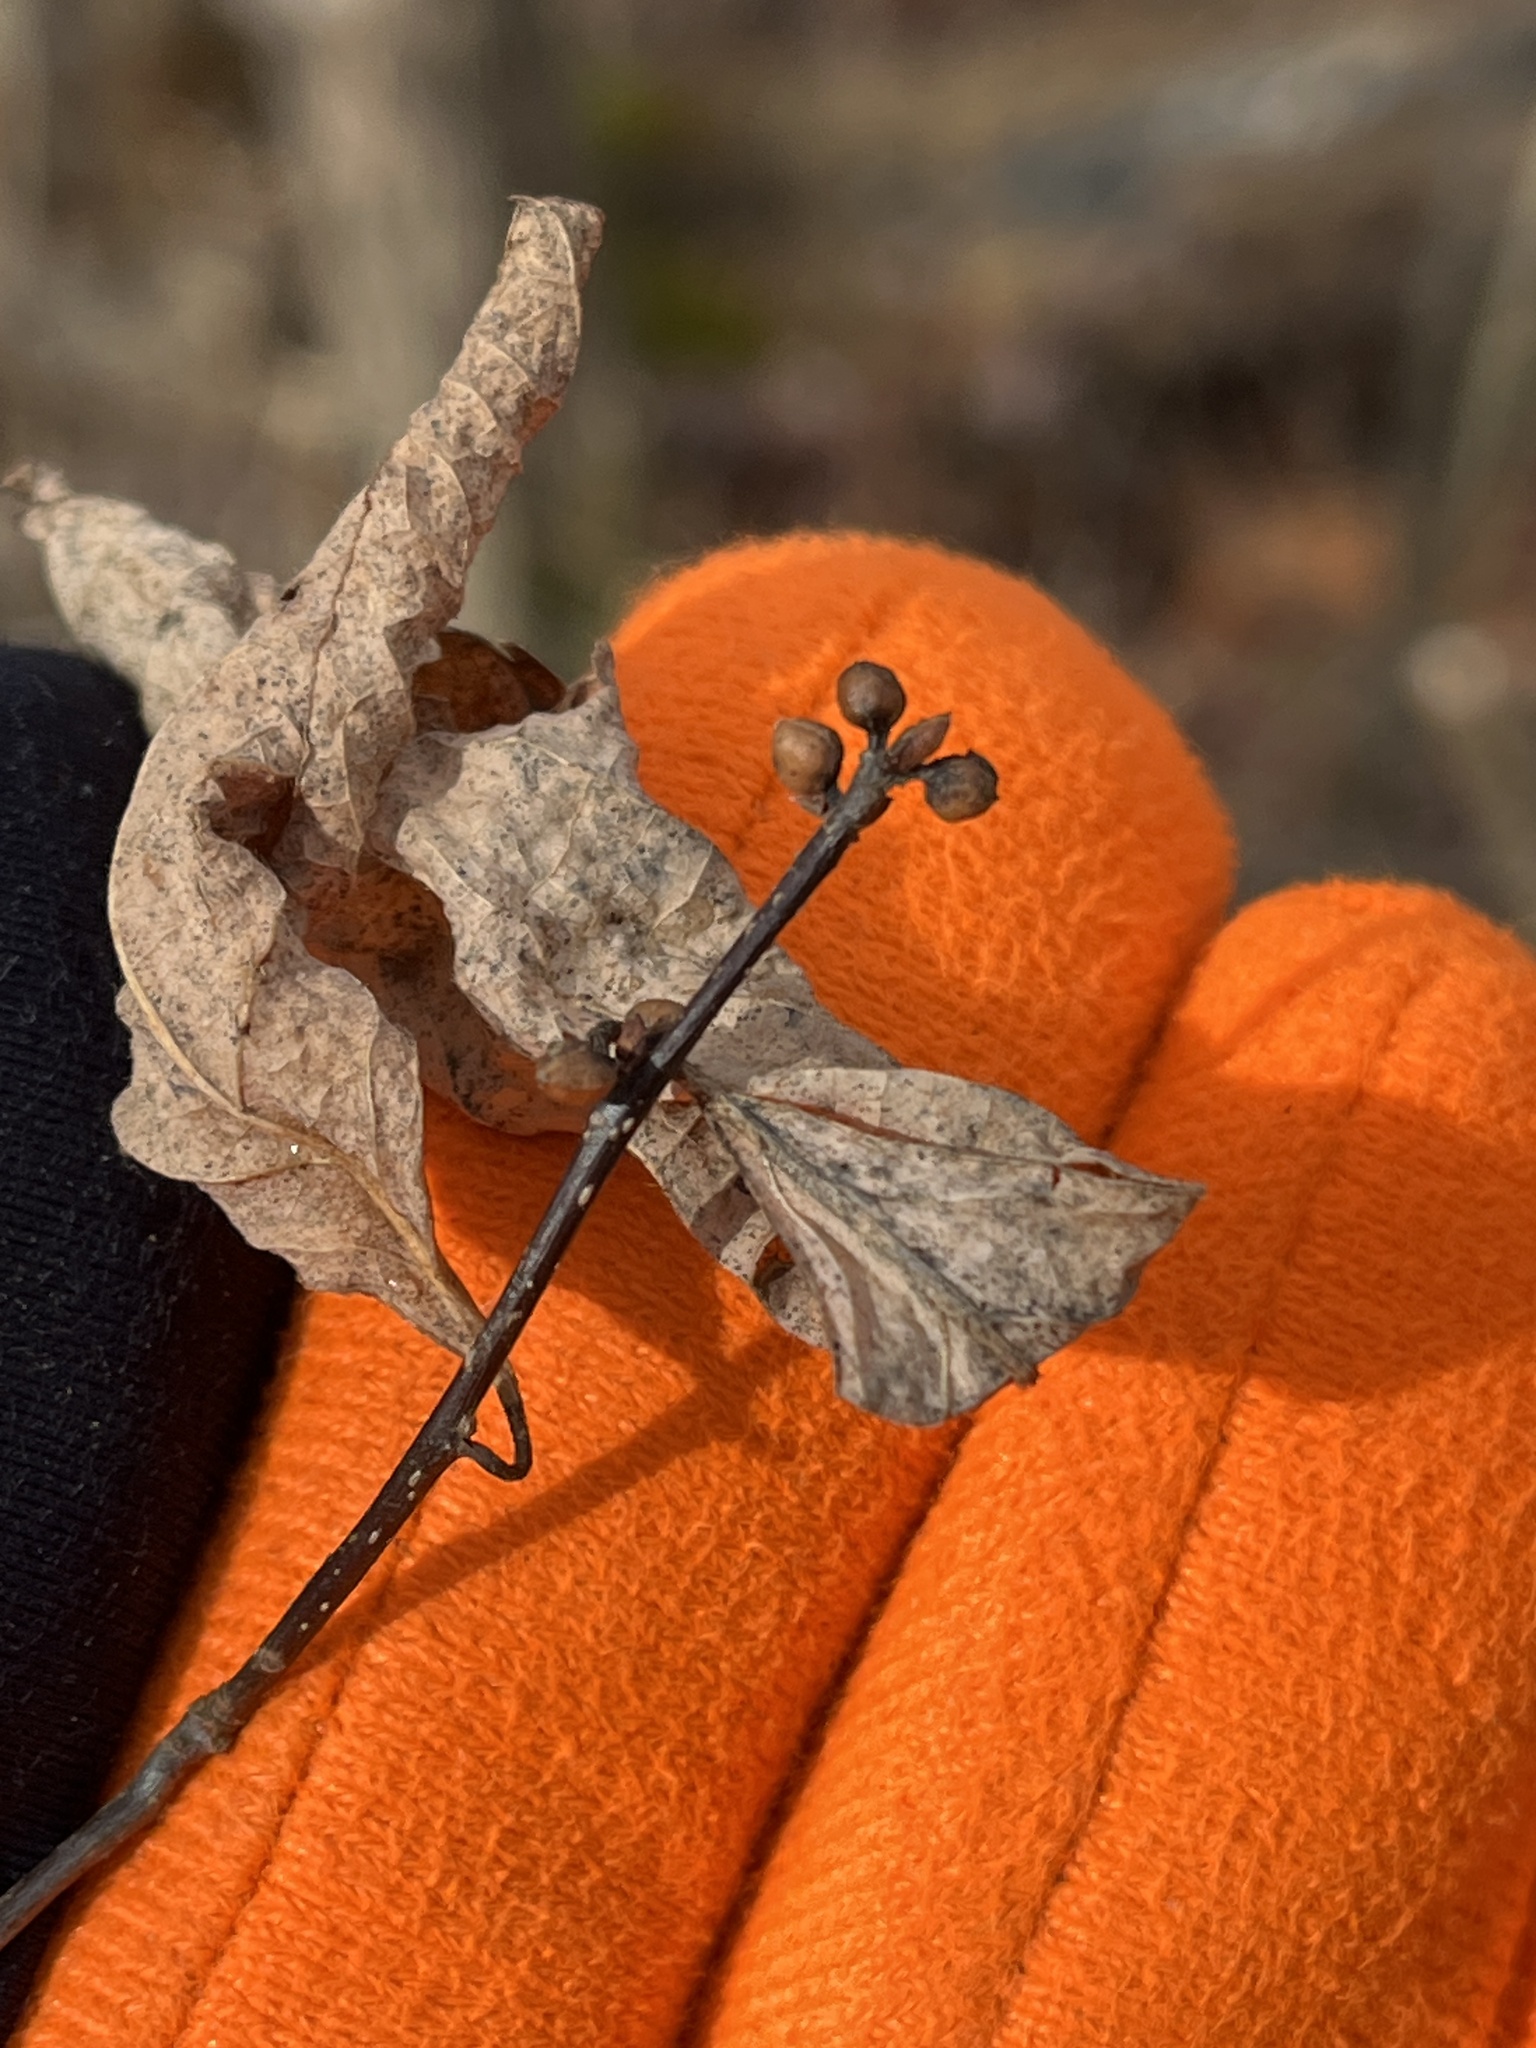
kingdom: Plantae
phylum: Tracheophyta
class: Magnoliopsida
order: Laurales
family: Lauraceae
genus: Lindera
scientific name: Lindera benzoin
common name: Spicebush
